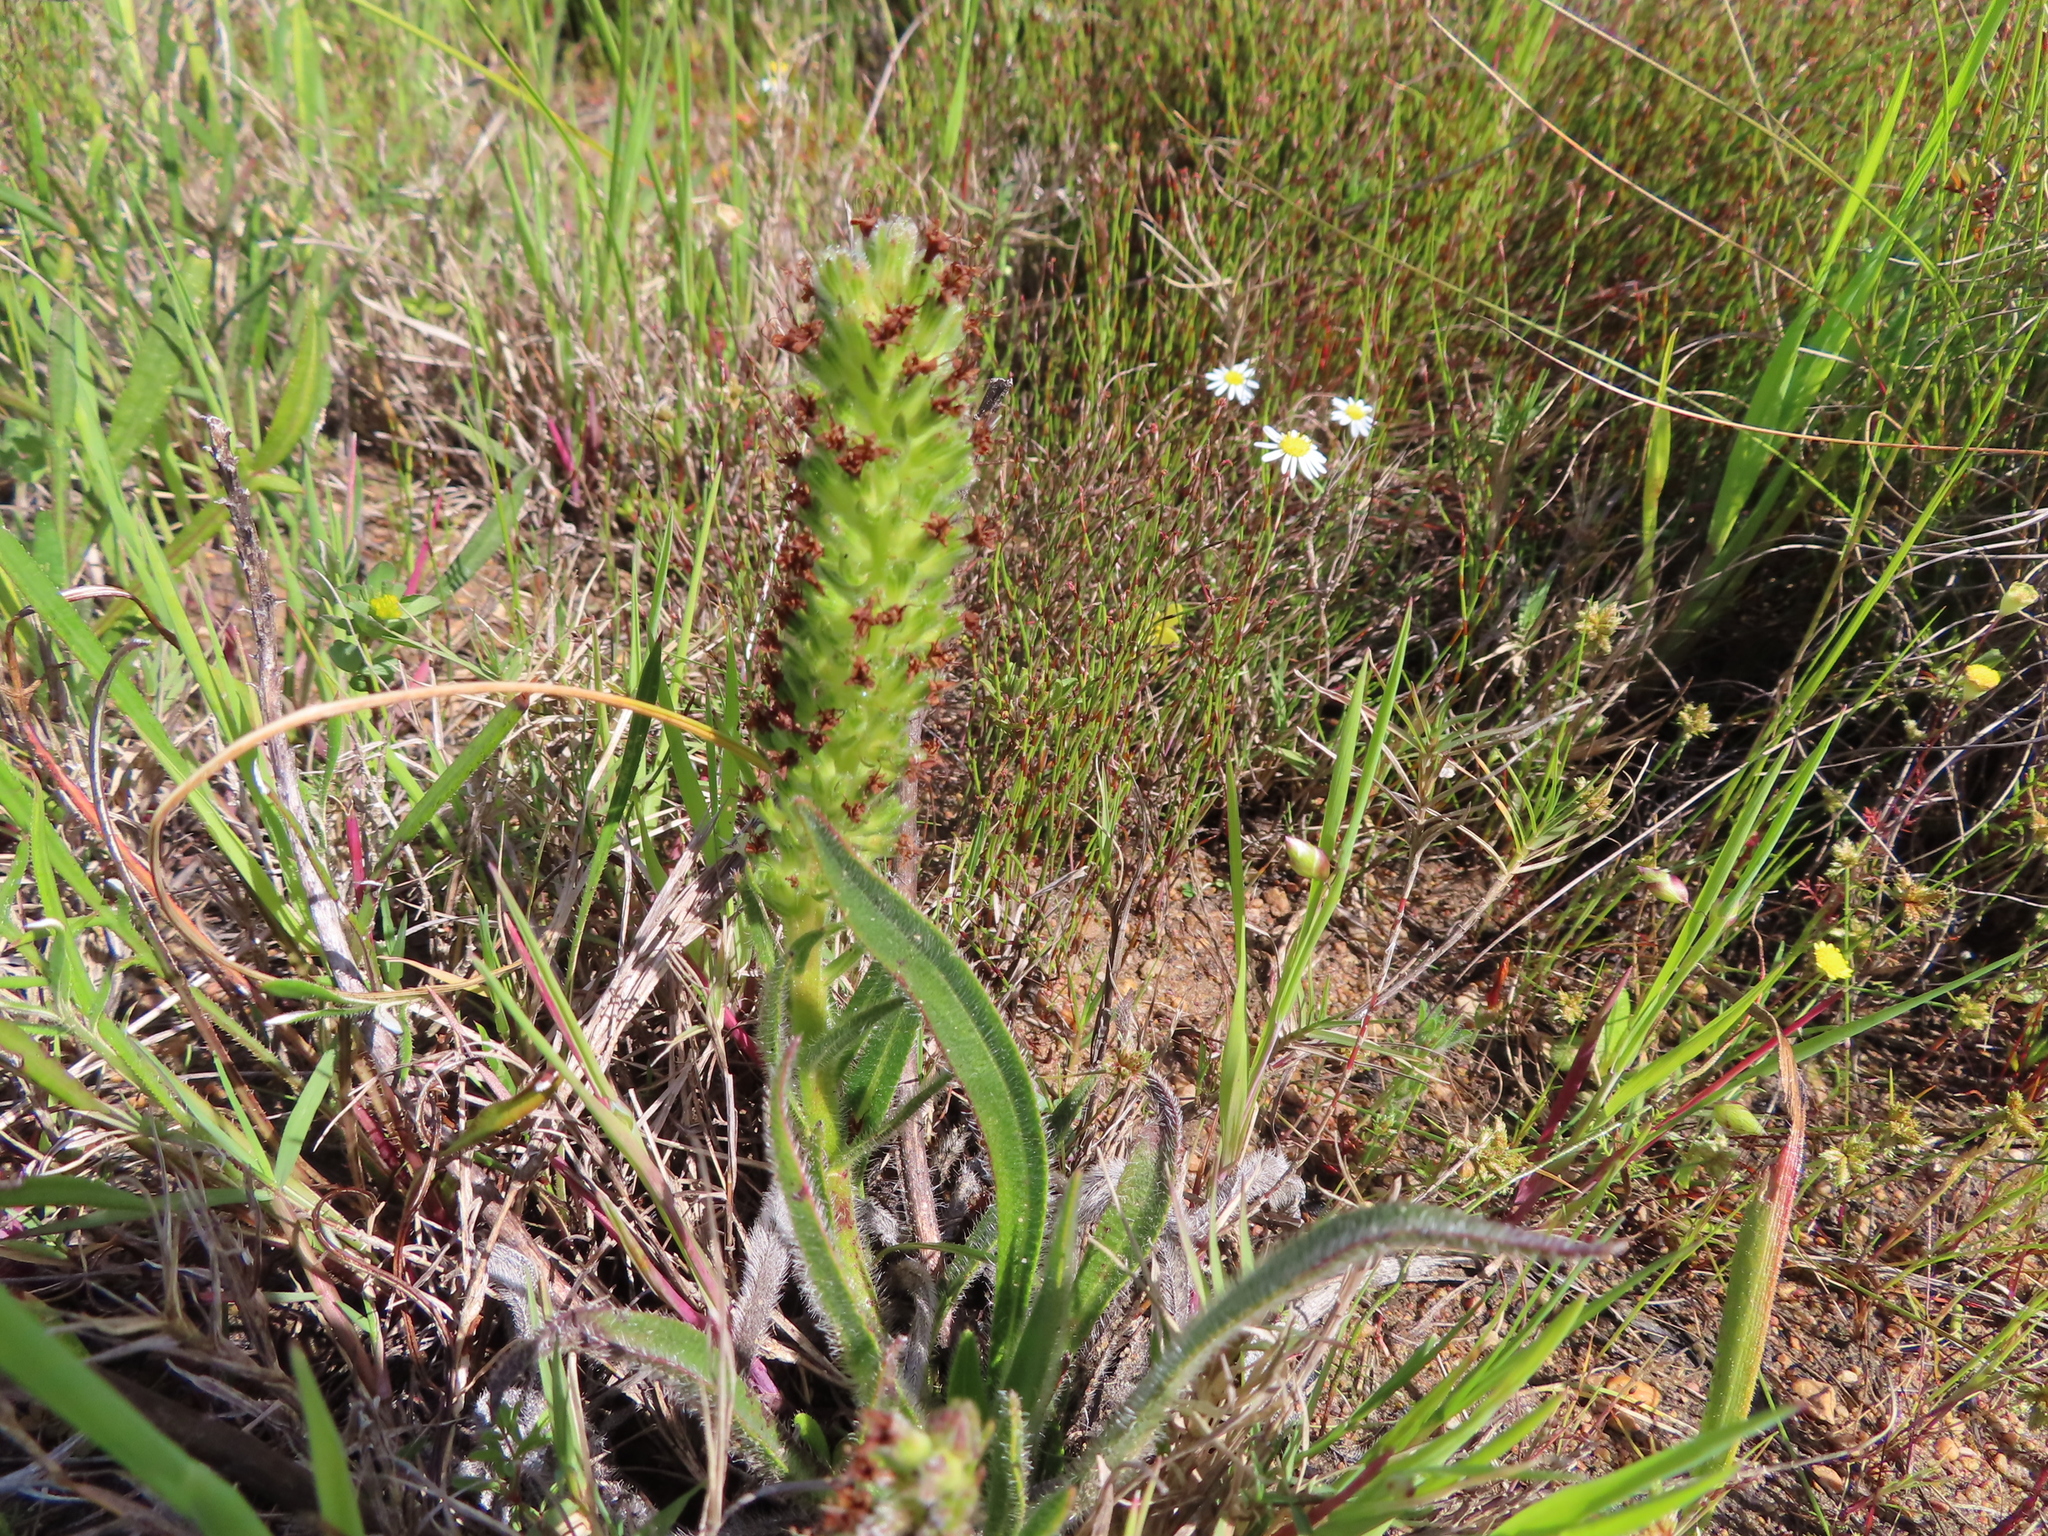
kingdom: Plantae
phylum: Tracheophyta
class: Magnoliopsida
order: Boraginales
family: Boraginaceae
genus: Lobostemon
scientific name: Lobostemon splendens
